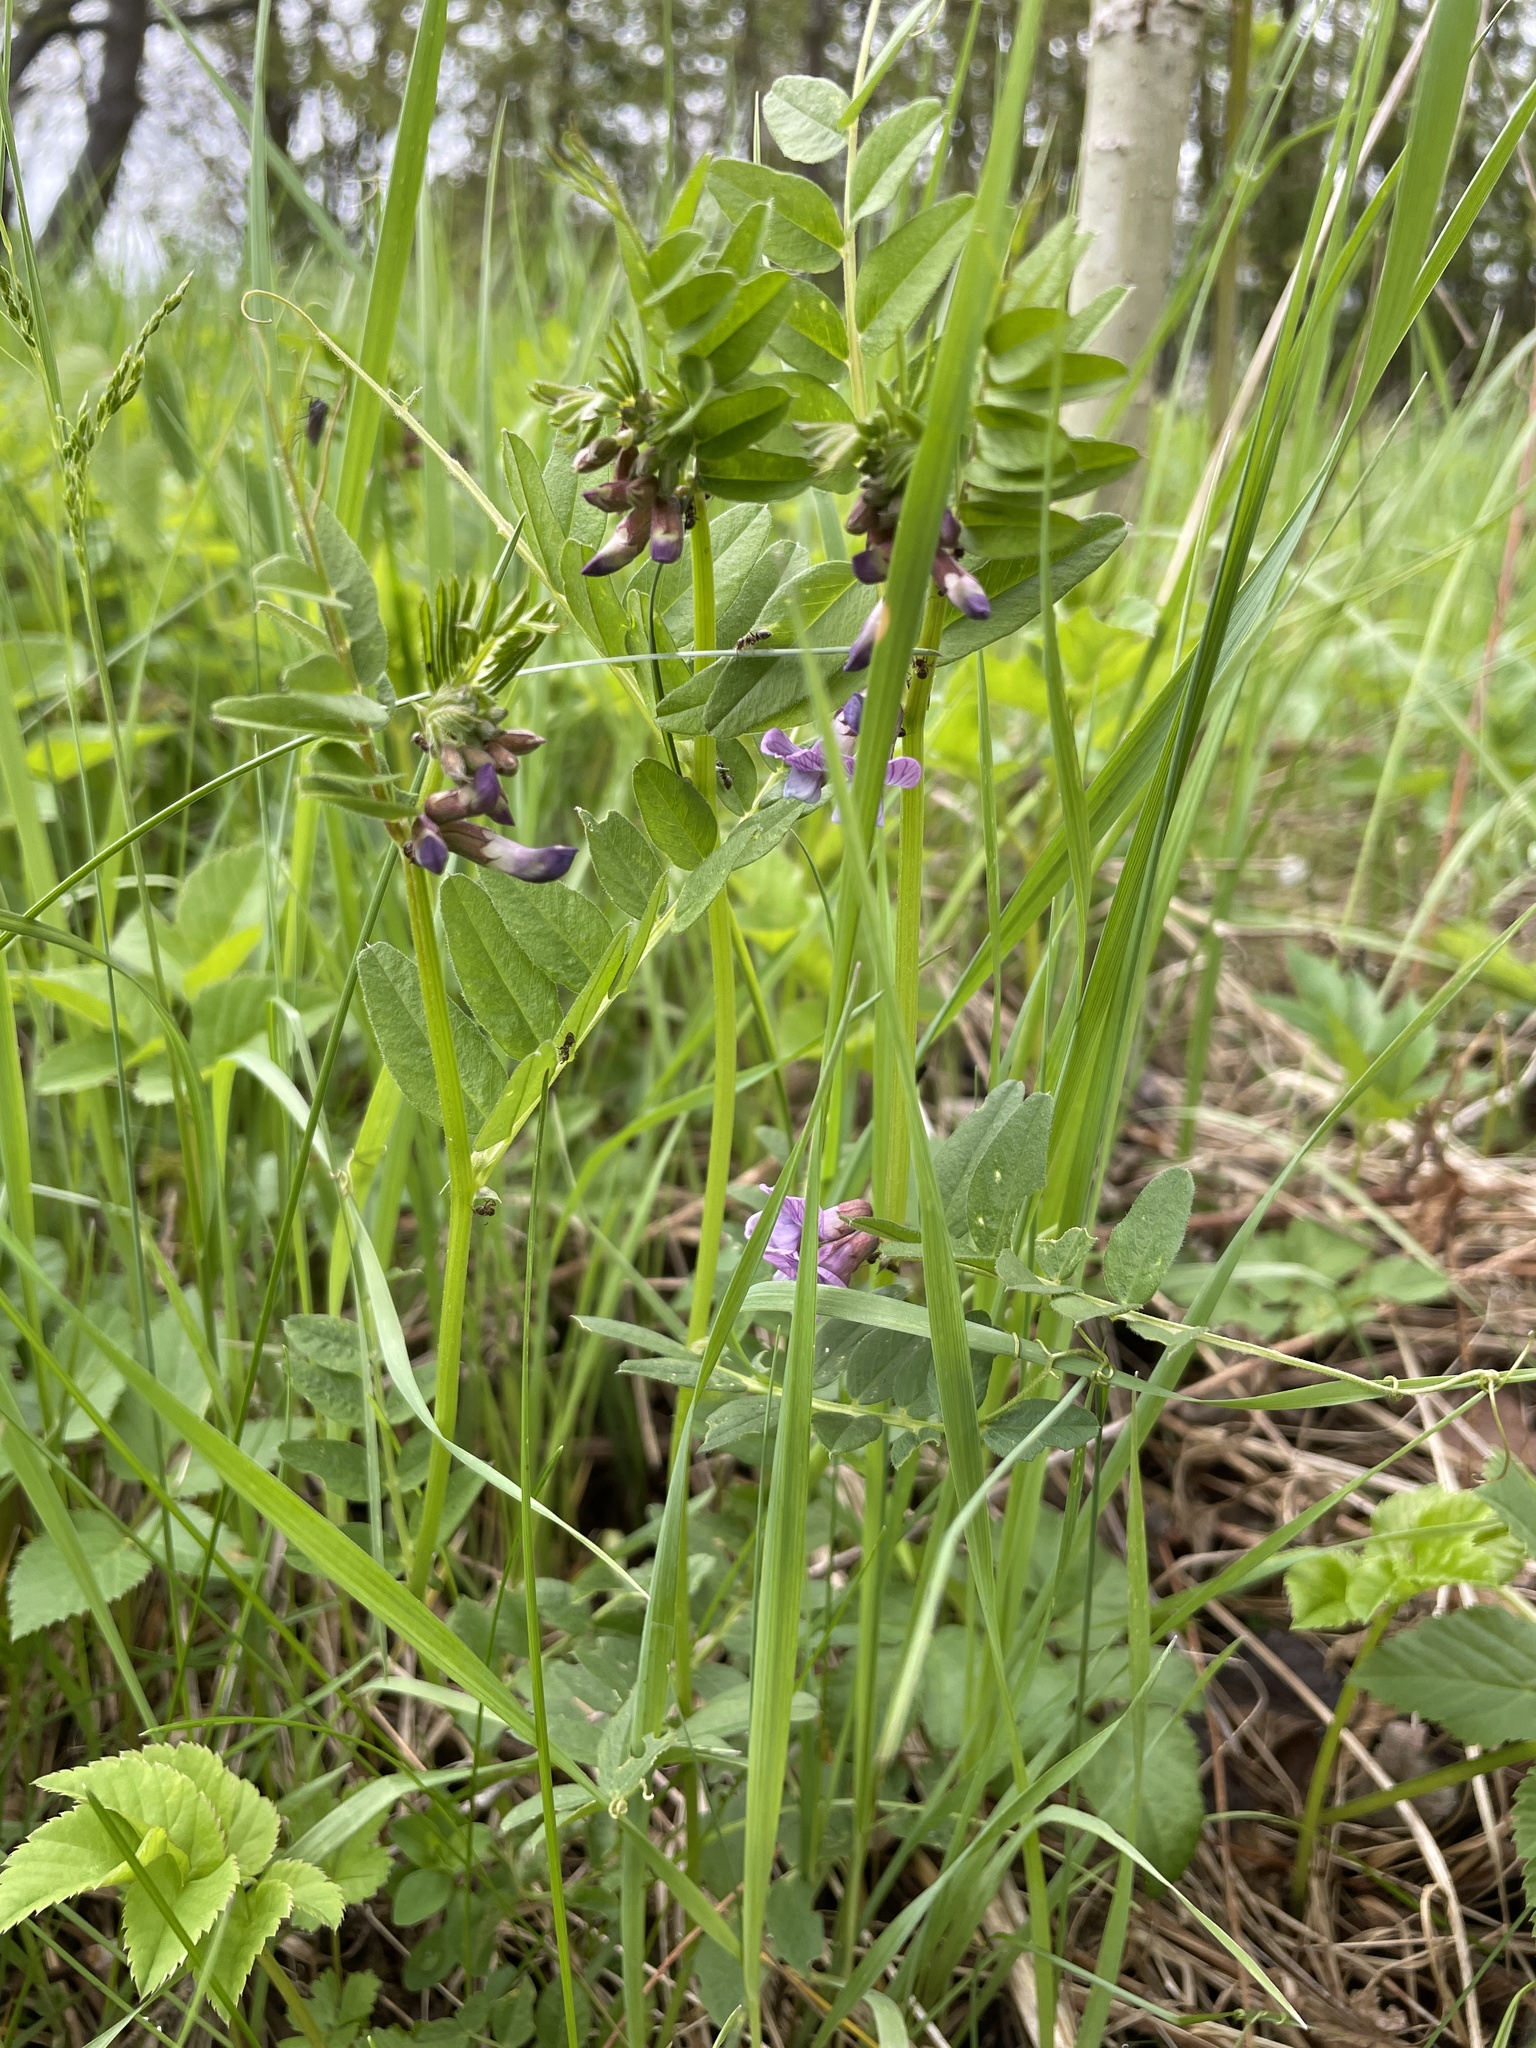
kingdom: Plantae
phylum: Tracheophyta
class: Magnoliopsida
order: Fabales
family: Fabaceae
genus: Vicia
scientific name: Vicia sepium
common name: Bush vetch
